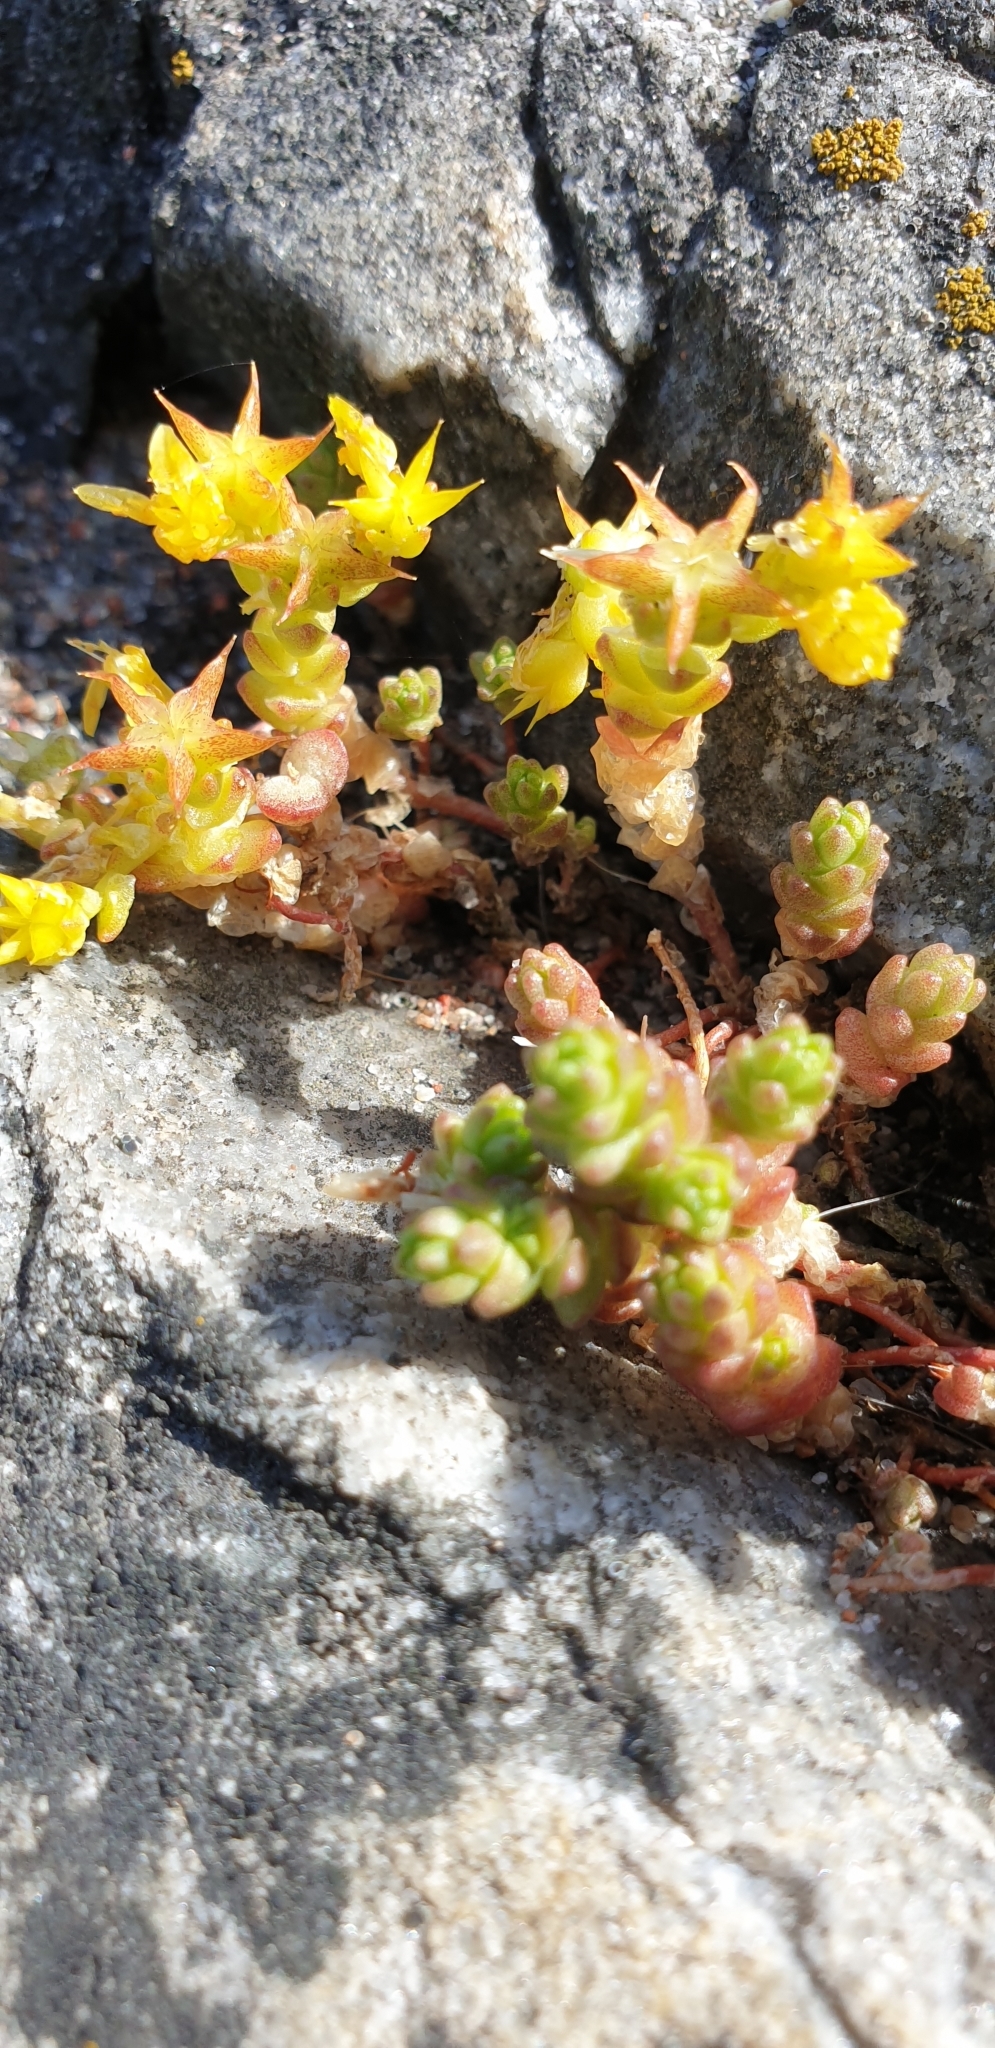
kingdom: Plantae
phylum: Tracheophyta
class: Magnoliopsida
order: Saxifragales
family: Crassulaceae
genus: Sedum
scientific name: Sedum acre
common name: Biting stonecrop
